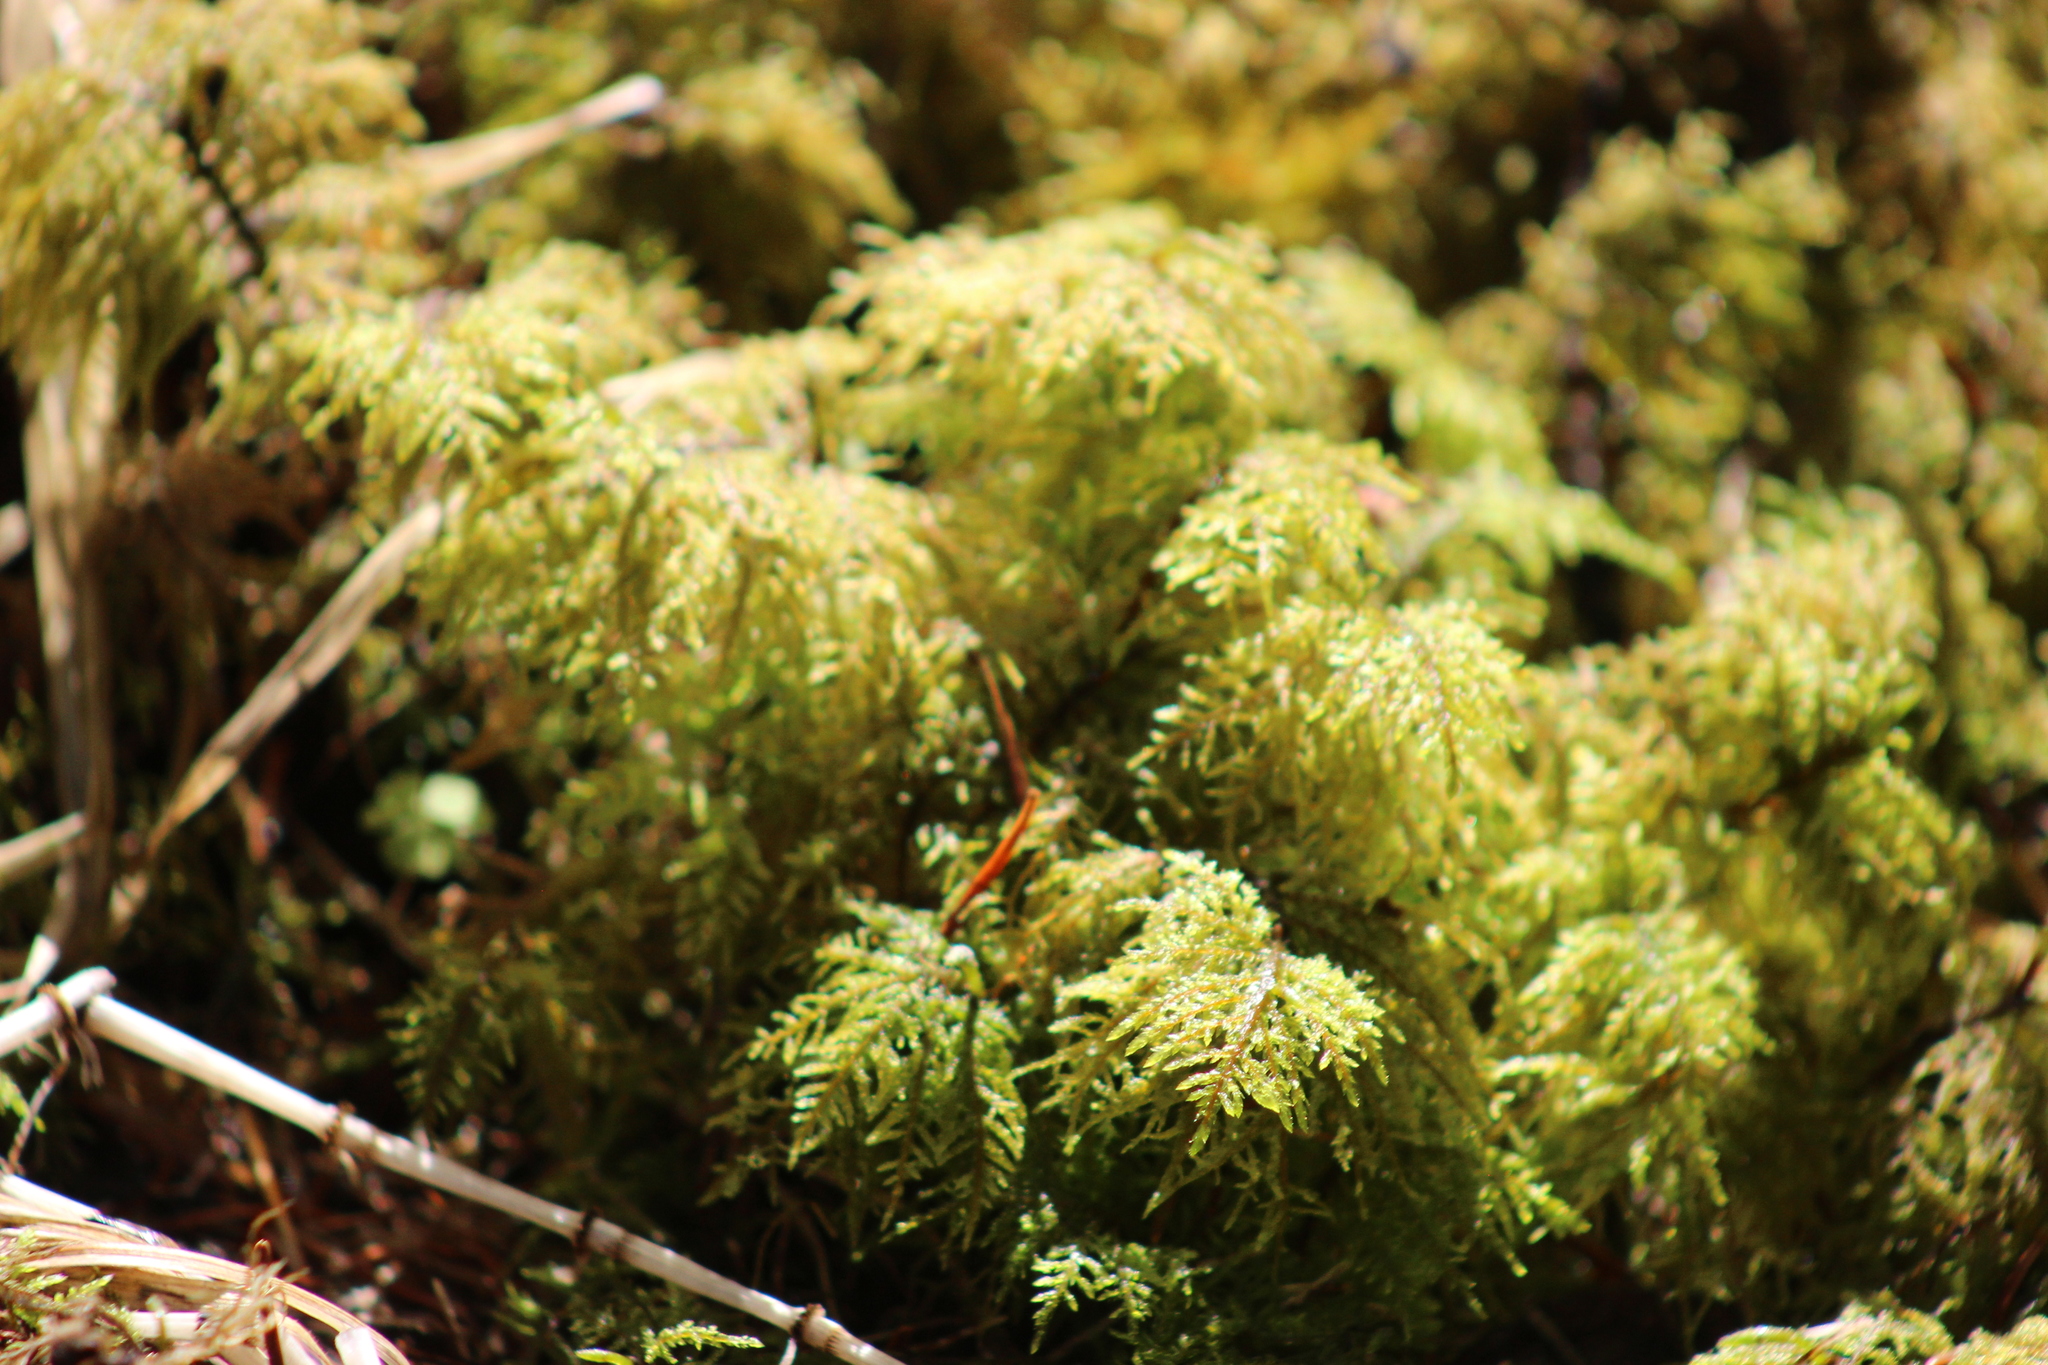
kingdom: Plantae
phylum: Bryophyta
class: Bryopsida
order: Hypnales
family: Hylocomiaceae
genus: Hylocomium
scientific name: Hylocomium splendens
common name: Stairstep moss
